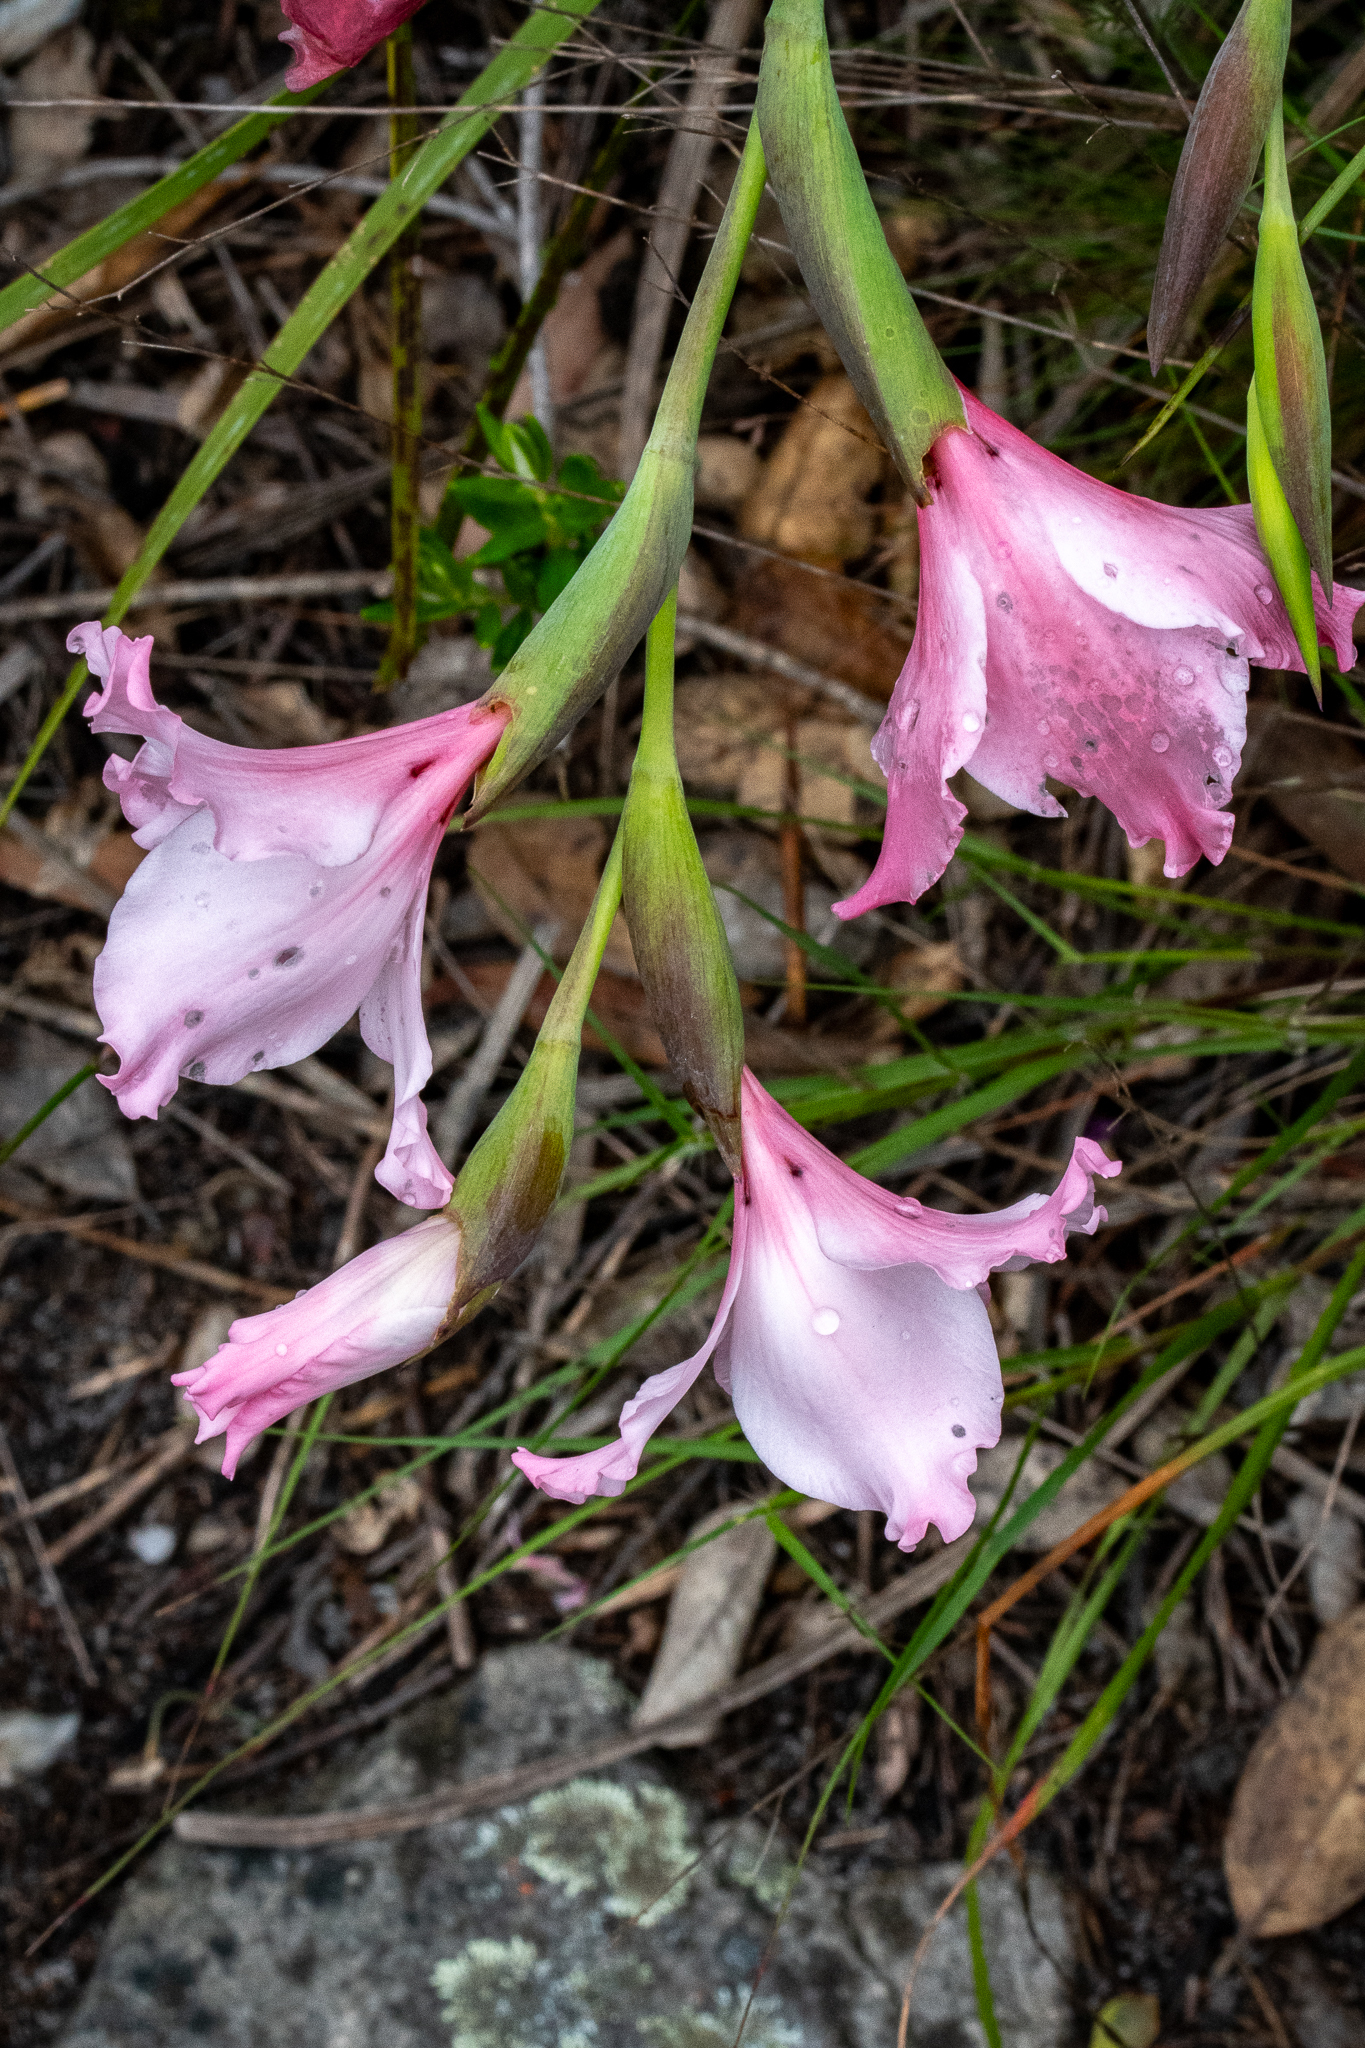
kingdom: Plantae
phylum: Tracheophyta
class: Liliopsida
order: Asparagales
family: Iridaceae
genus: Gladiolus
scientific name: Gladiolus carneus
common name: Painted-lady
